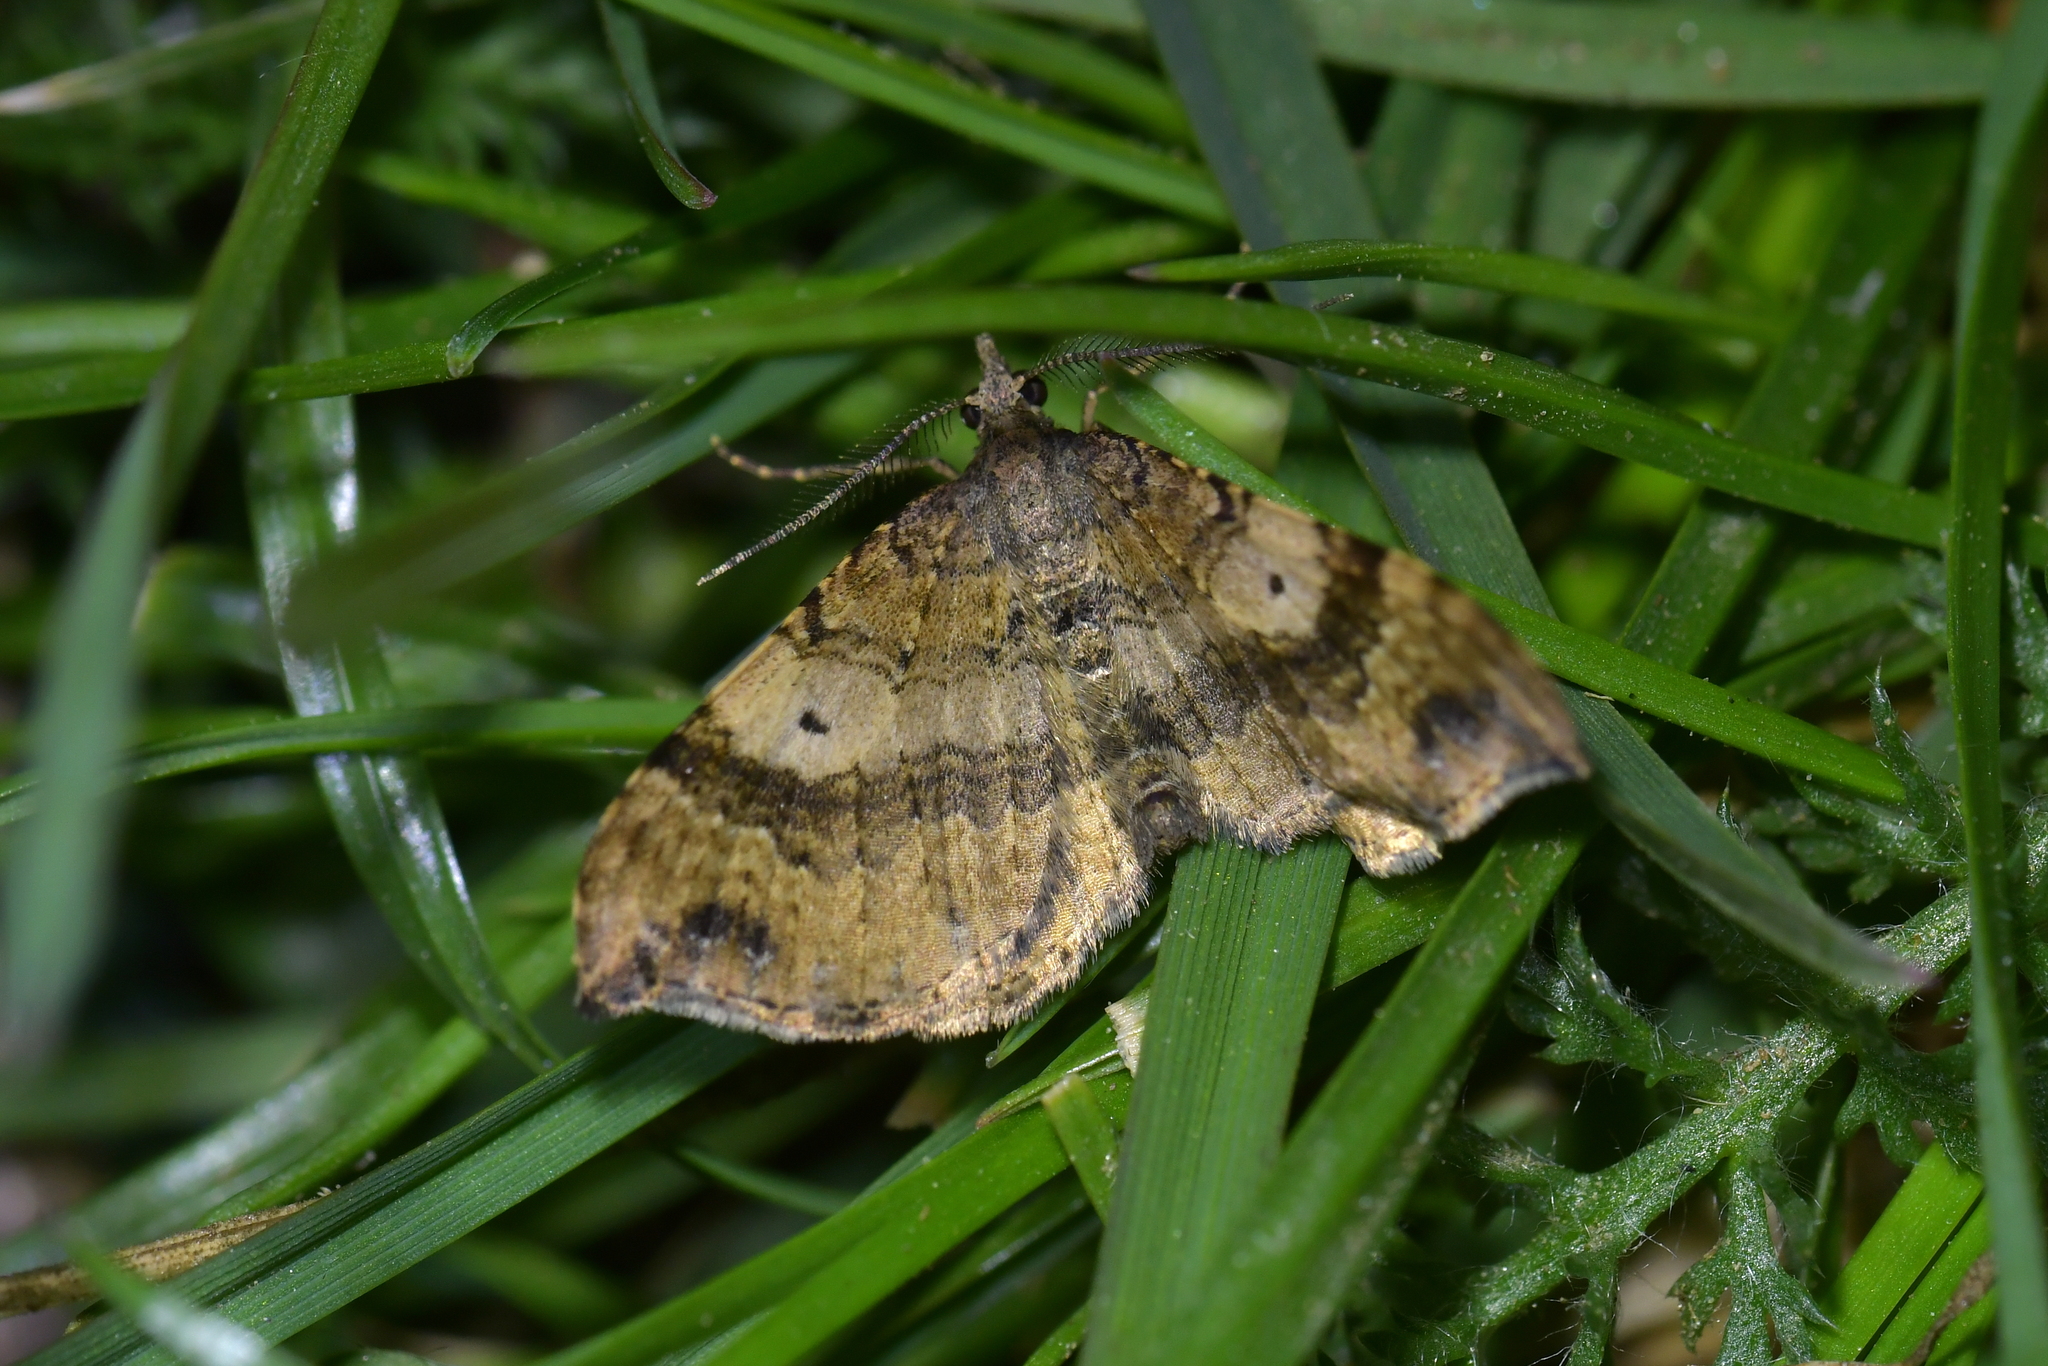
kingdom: Animalia
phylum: Arthropoda
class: Insecta
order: Lepidoptera
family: Geometridae
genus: Homodotis
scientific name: Homodotis megaspilata
